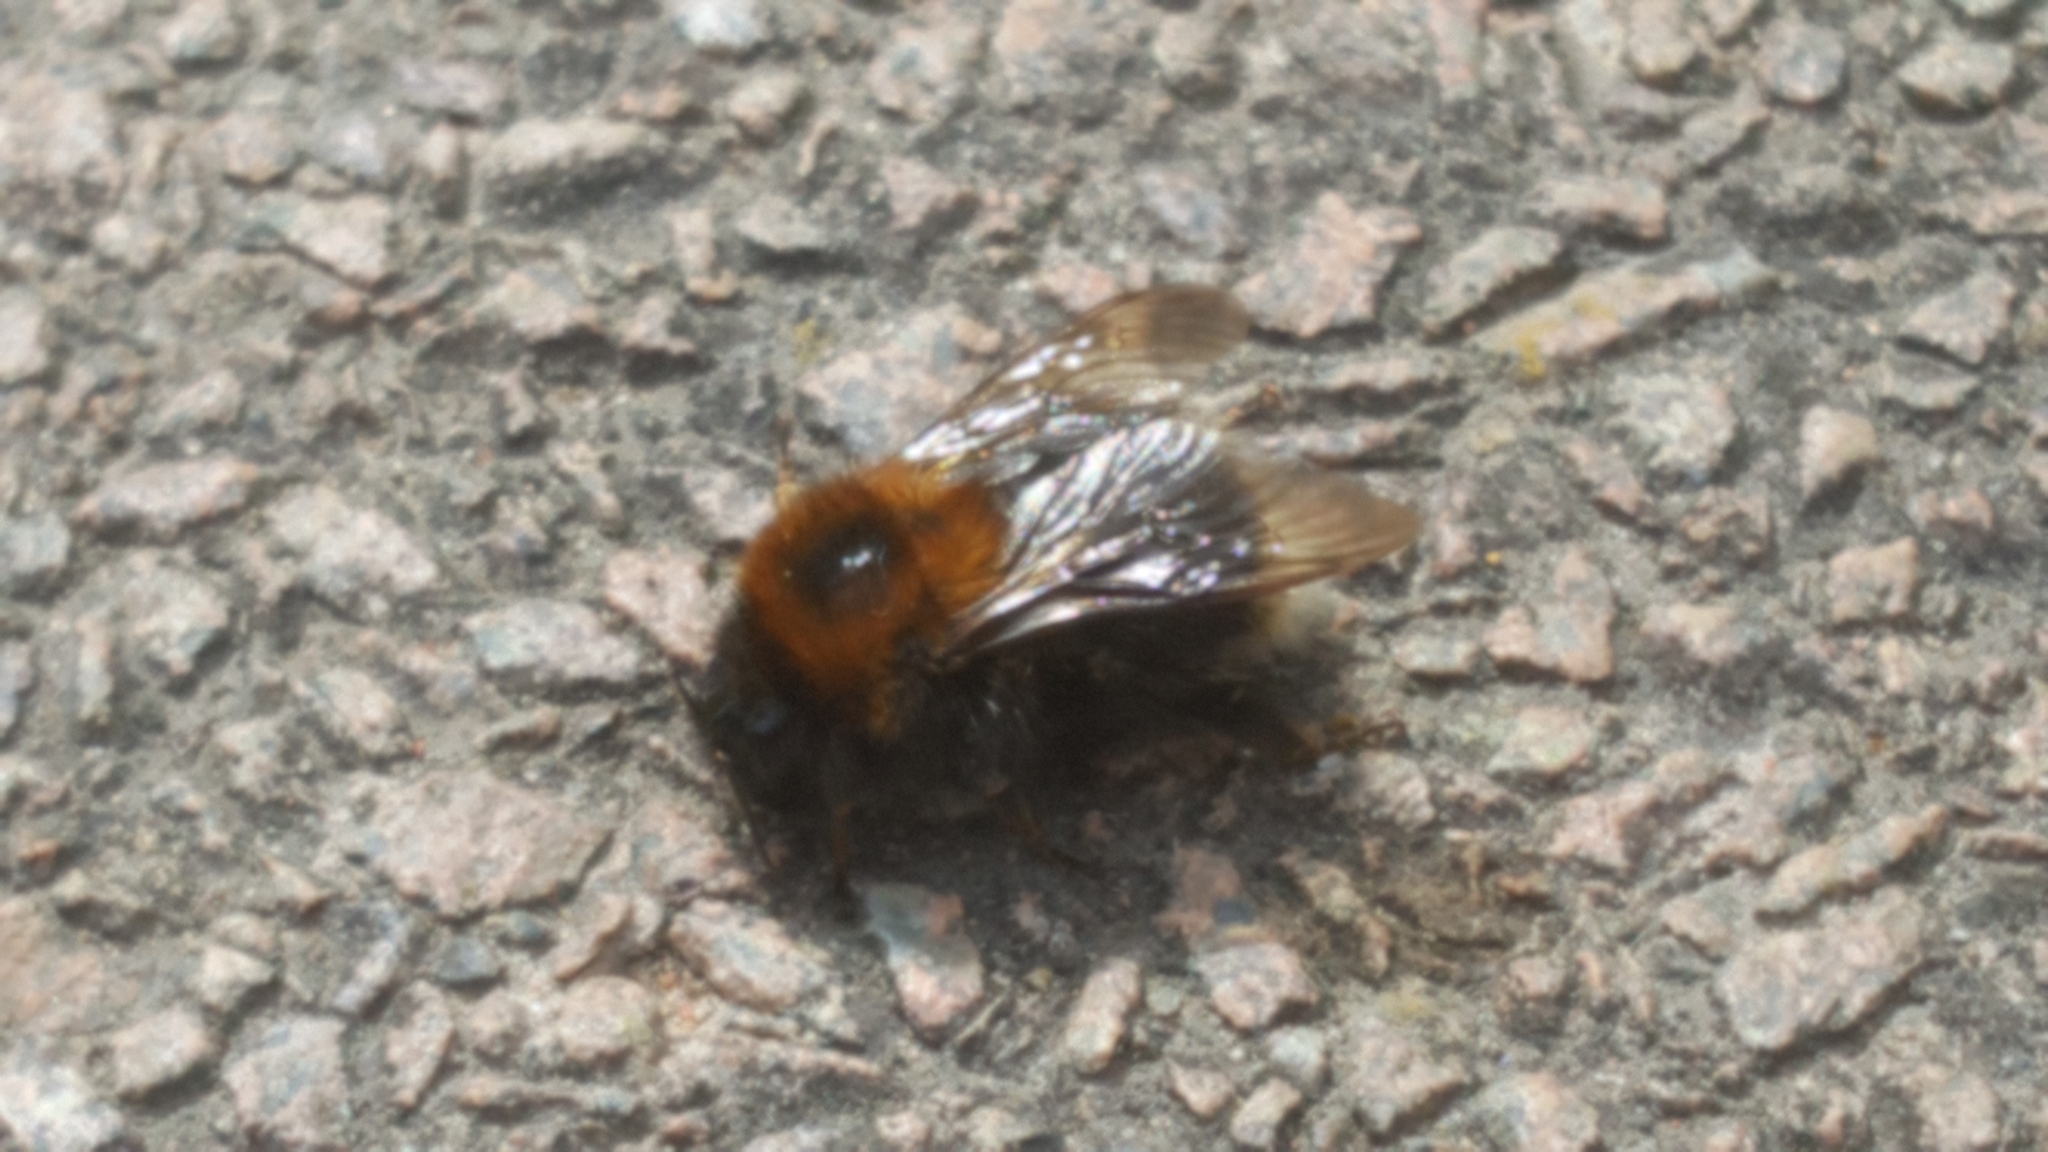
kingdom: Animalia
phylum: Arthropoda
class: Insecta
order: Hymenoptera
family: Apidae
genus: Bombus
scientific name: Bombus hypnorum
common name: New garden bumblebee
